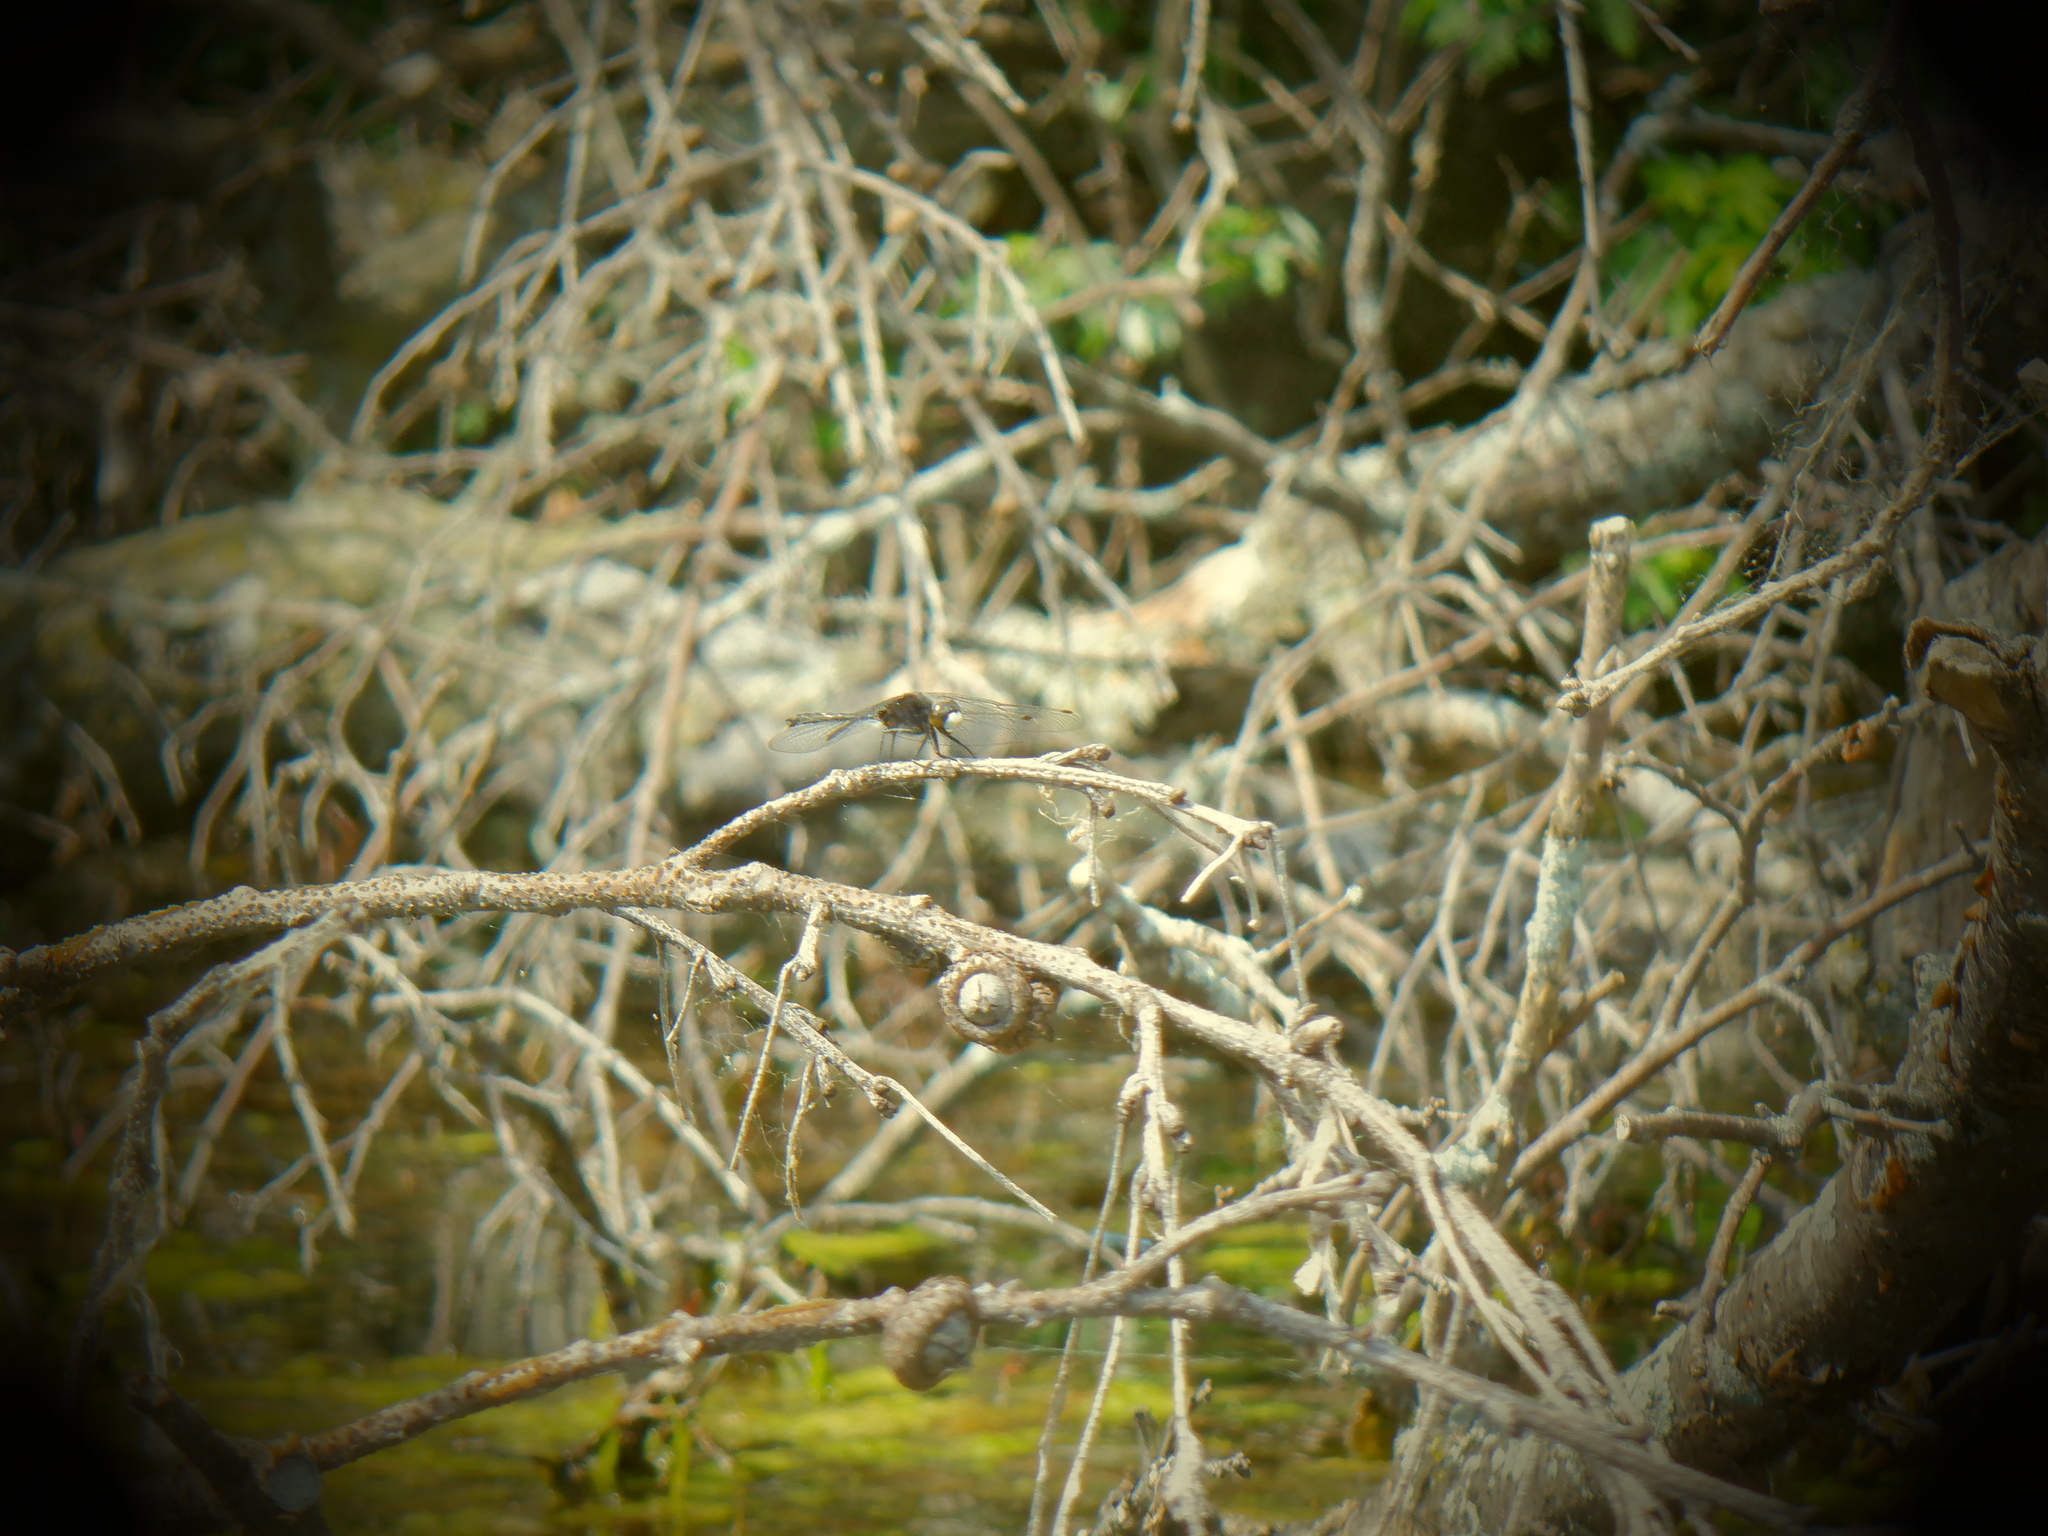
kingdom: Animalia
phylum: Arthropoda
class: Insecta
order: Odonata
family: Libellulidae
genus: Leucorrhinia
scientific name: Leucorrhinia intacta
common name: Dot-tailed whiteface
